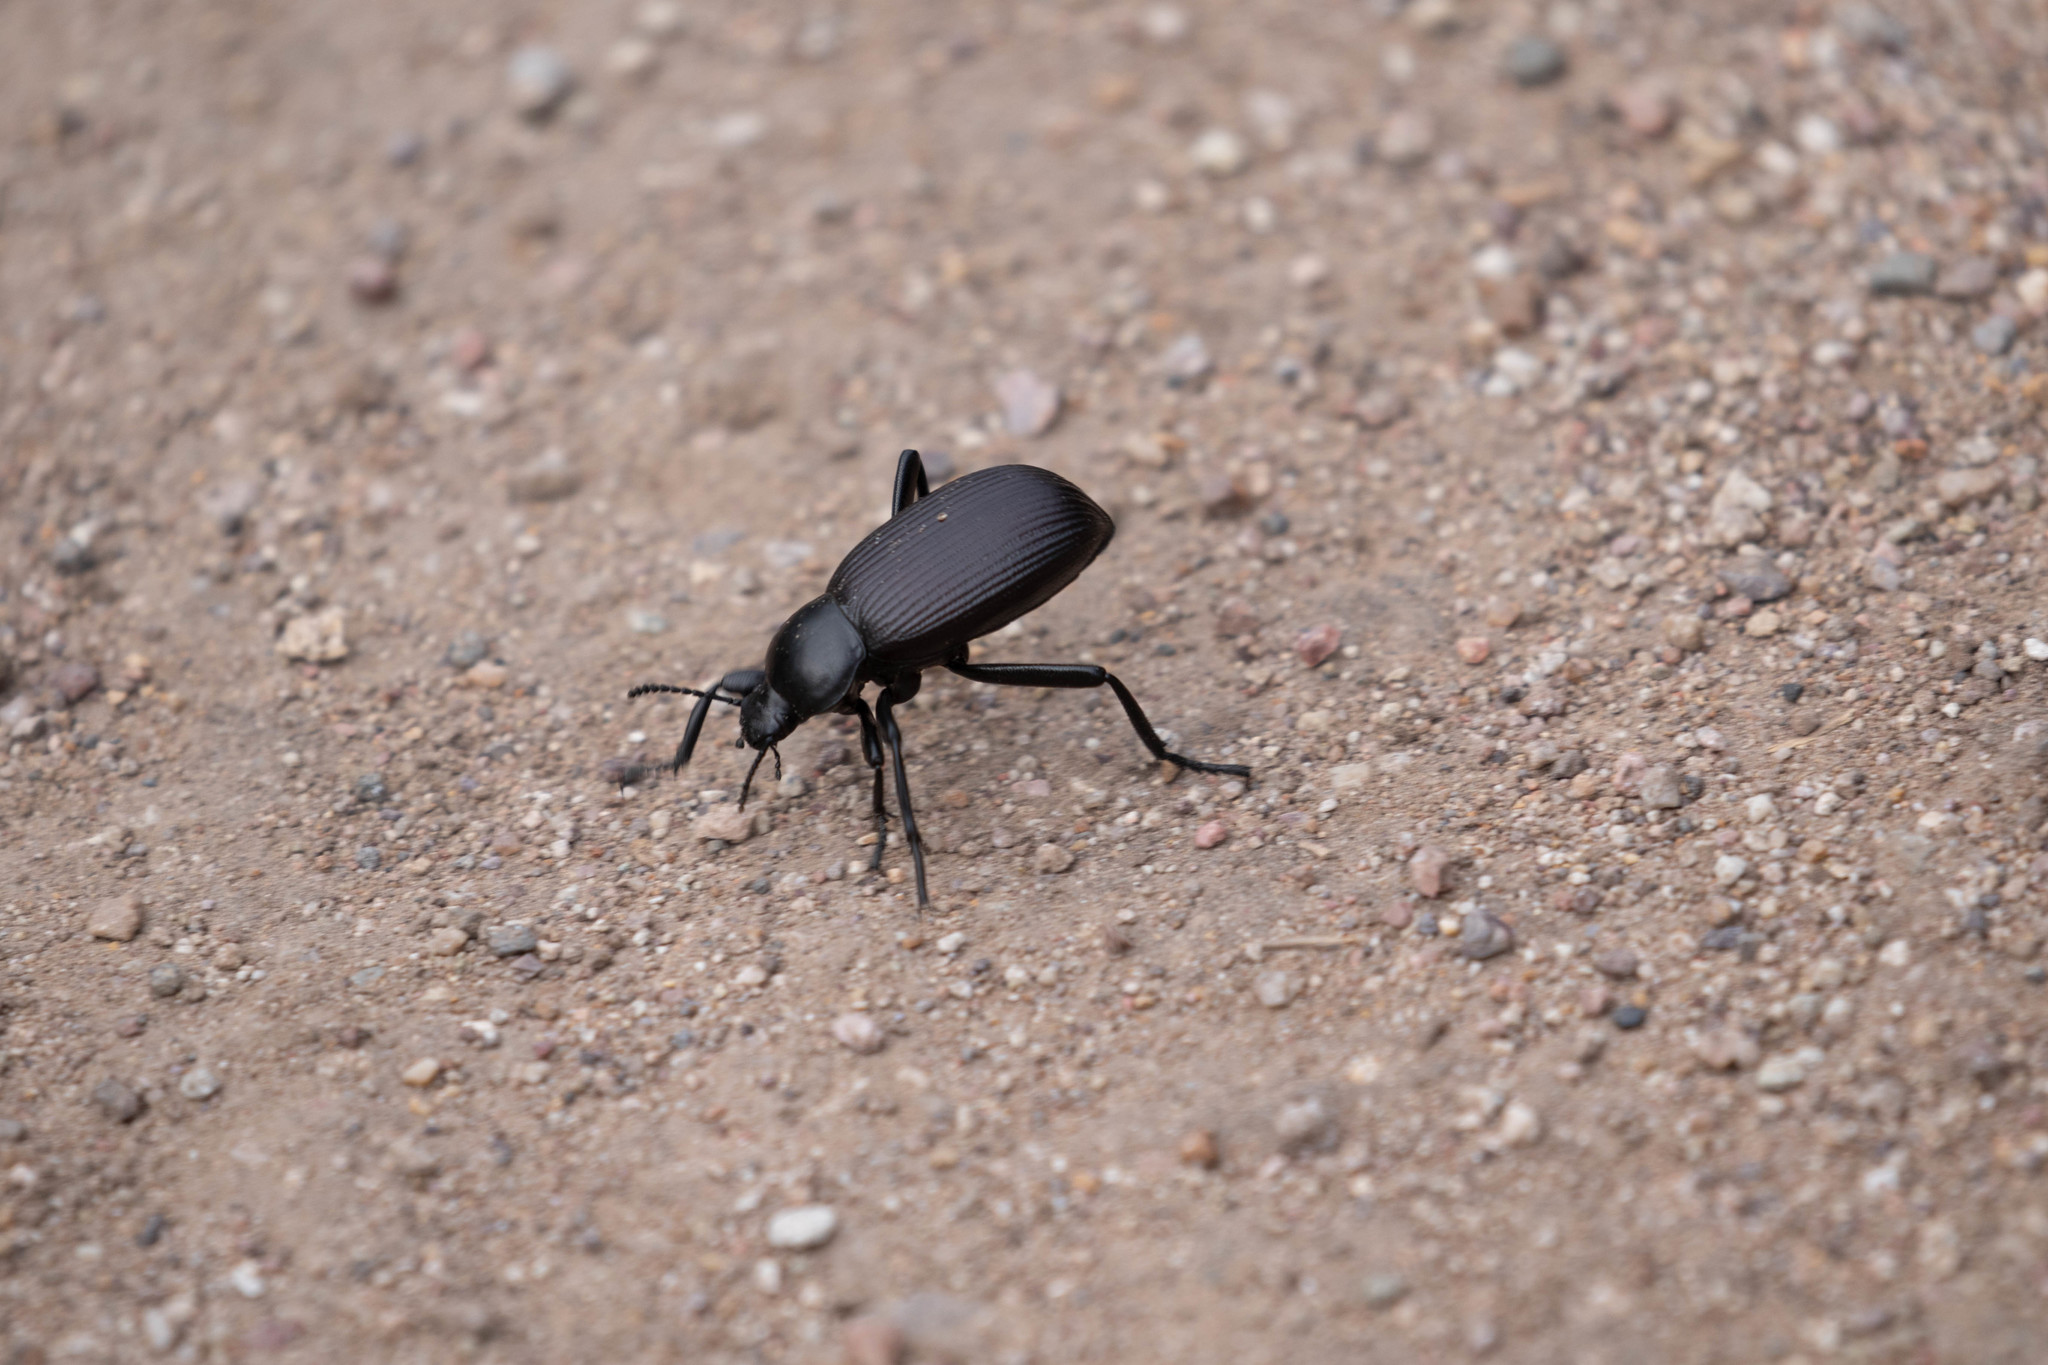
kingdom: Animalia
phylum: Arthropoda
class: Insecta
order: Coleoptera
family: Tenebrionidae
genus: Eleodes
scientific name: Eleodes obscura
